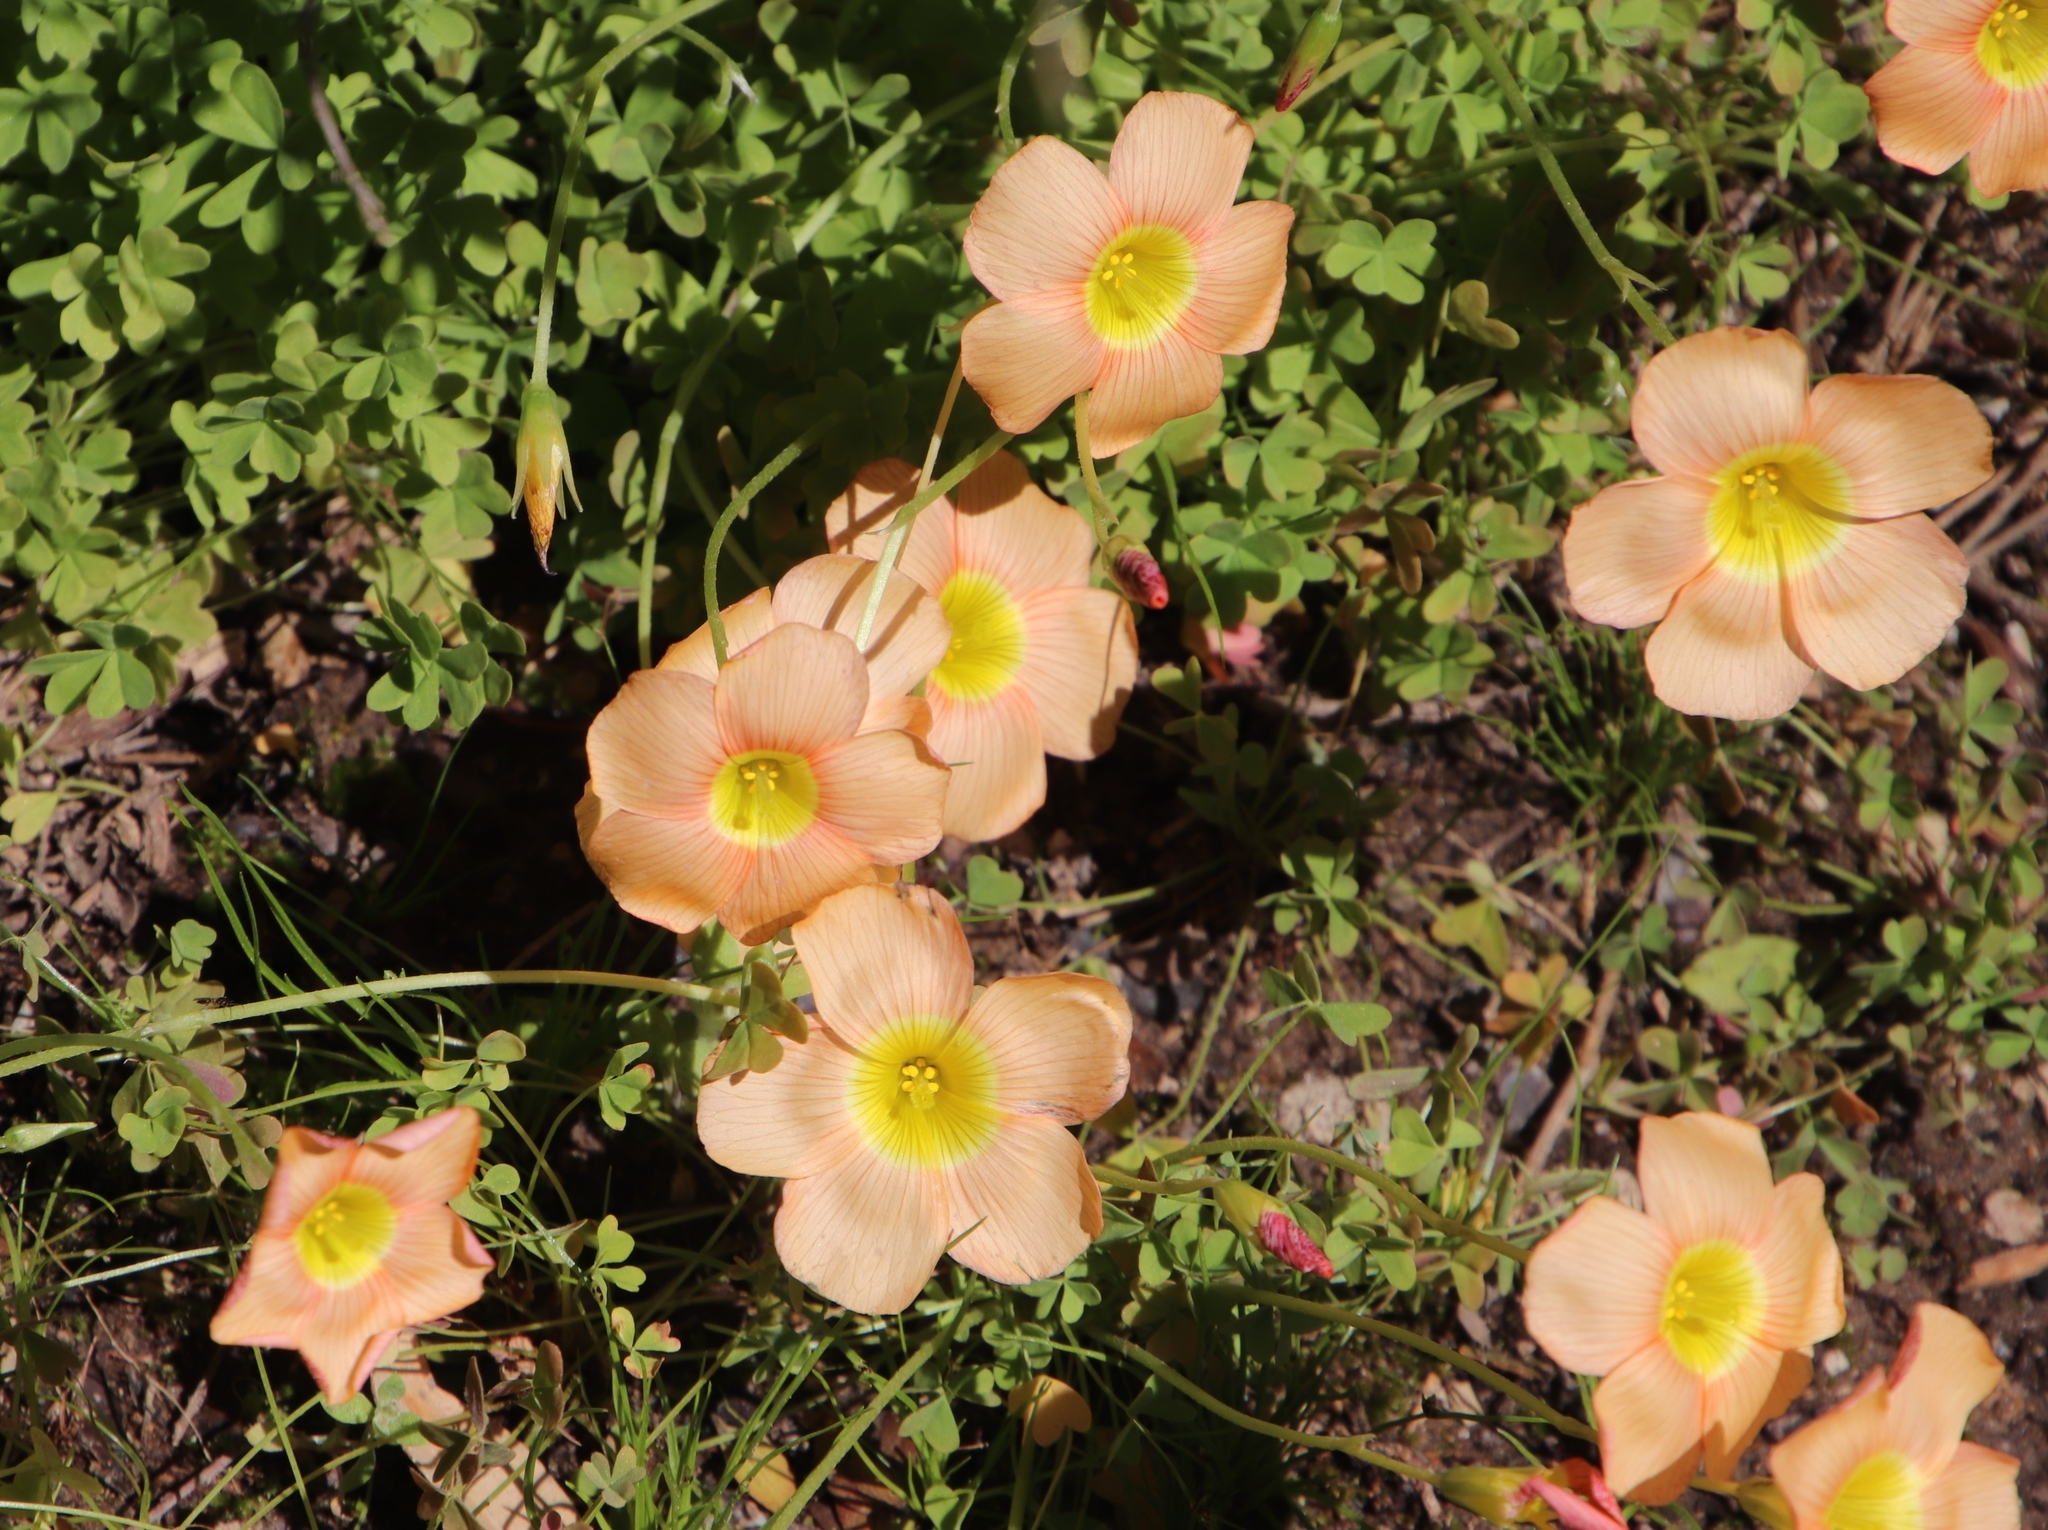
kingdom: Plantae
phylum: Tracheophyta
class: Magnoliopsida
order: Oxalidales
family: Oxalidaceae
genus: Oxalis
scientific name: Oxalis obtusa
